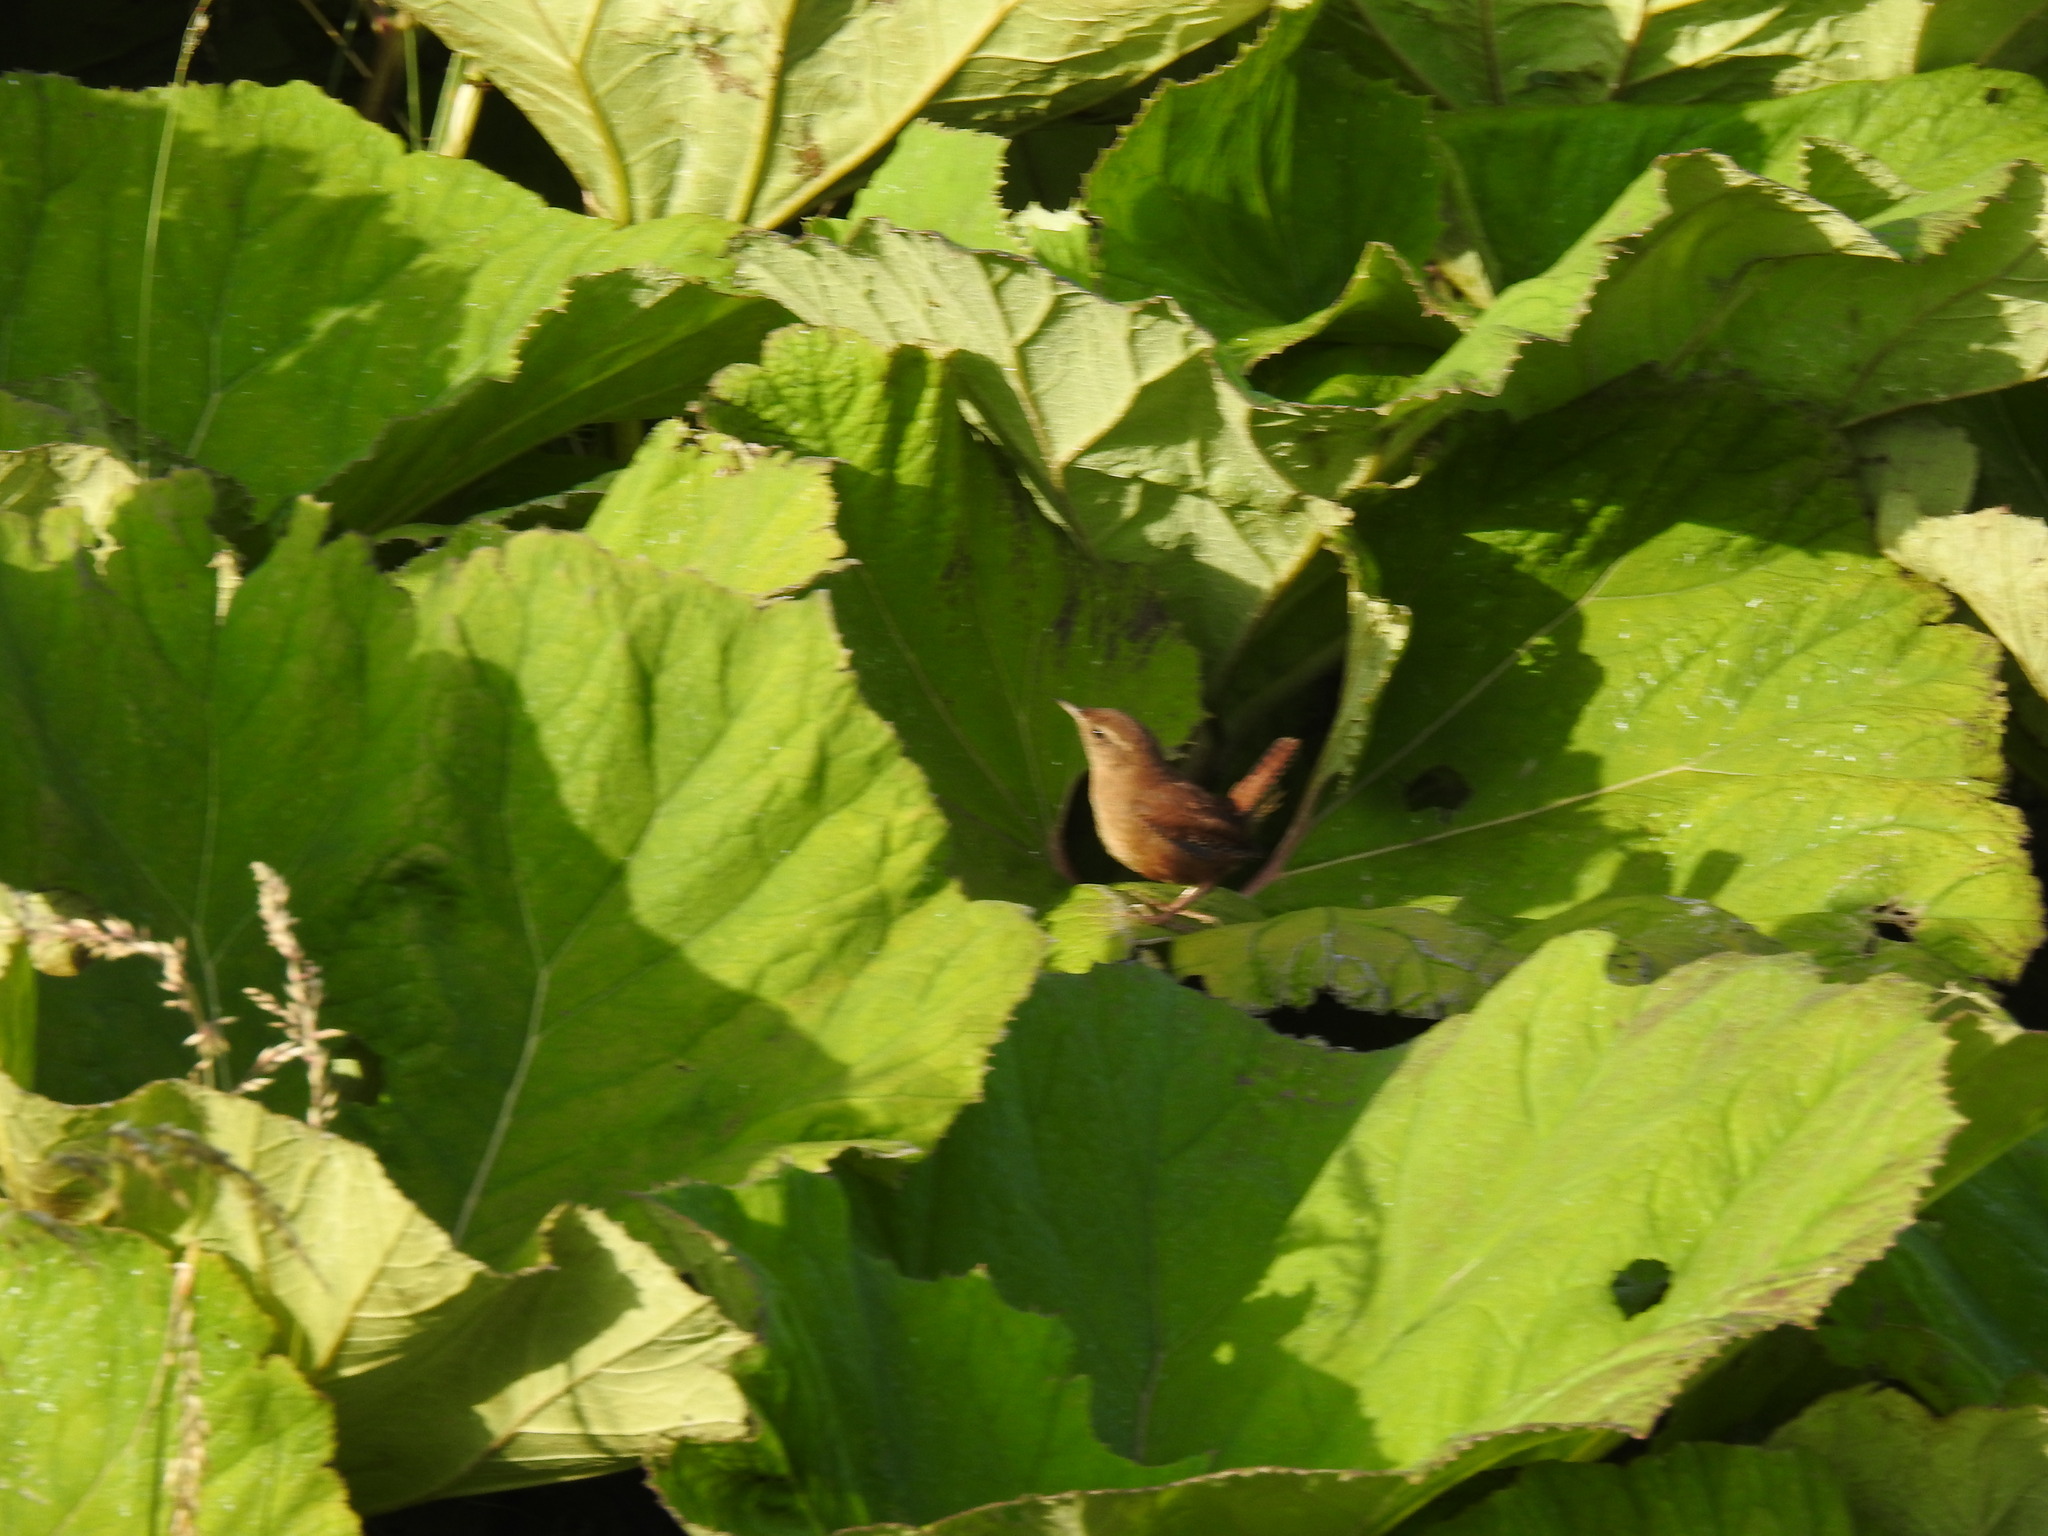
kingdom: Animalia
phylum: Chordata
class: Aves
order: Passeriformes
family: Troglodytidae
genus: Troglodytes
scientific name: Troglodytes troglodytes
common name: Eurasian wren
